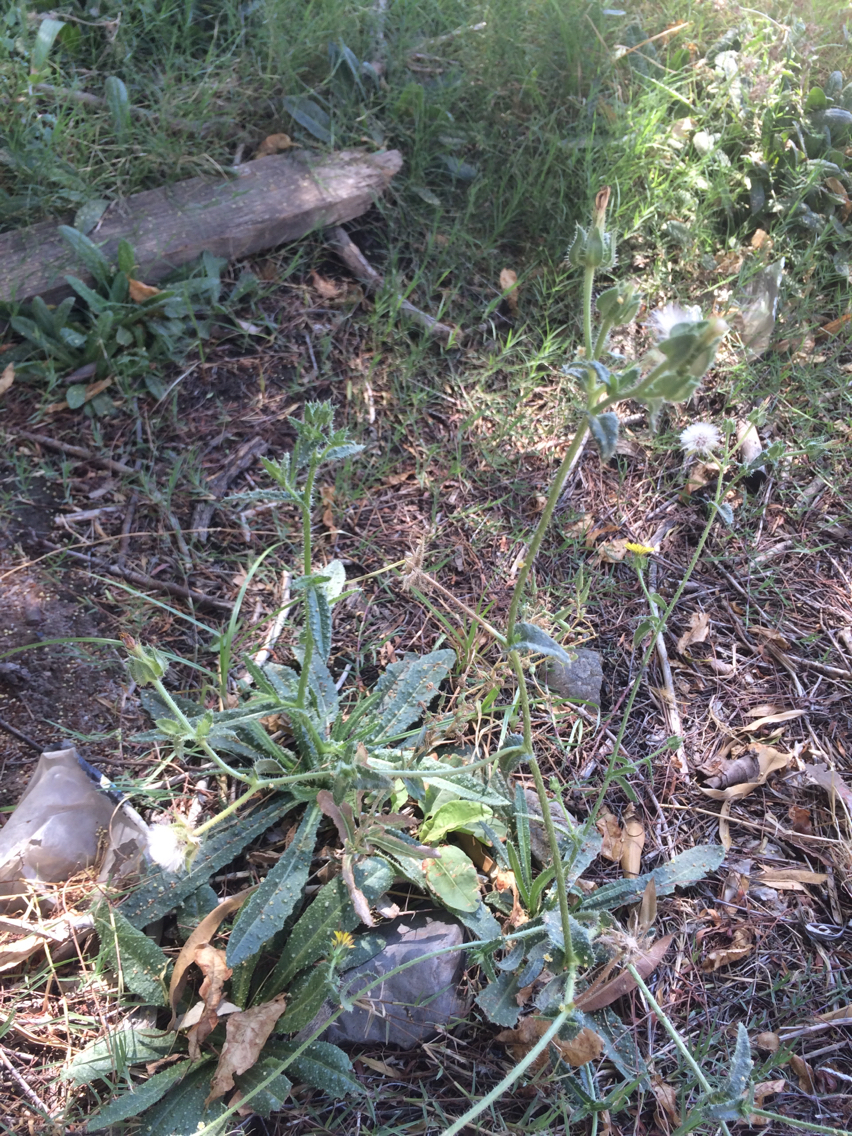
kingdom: Plantae
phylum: Tracheophyta
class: Magnoliopsida
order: Asterales
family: Asteraceae
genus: Helminthotheca
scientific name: Helminthotheca echioides
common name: Ox-tongue
